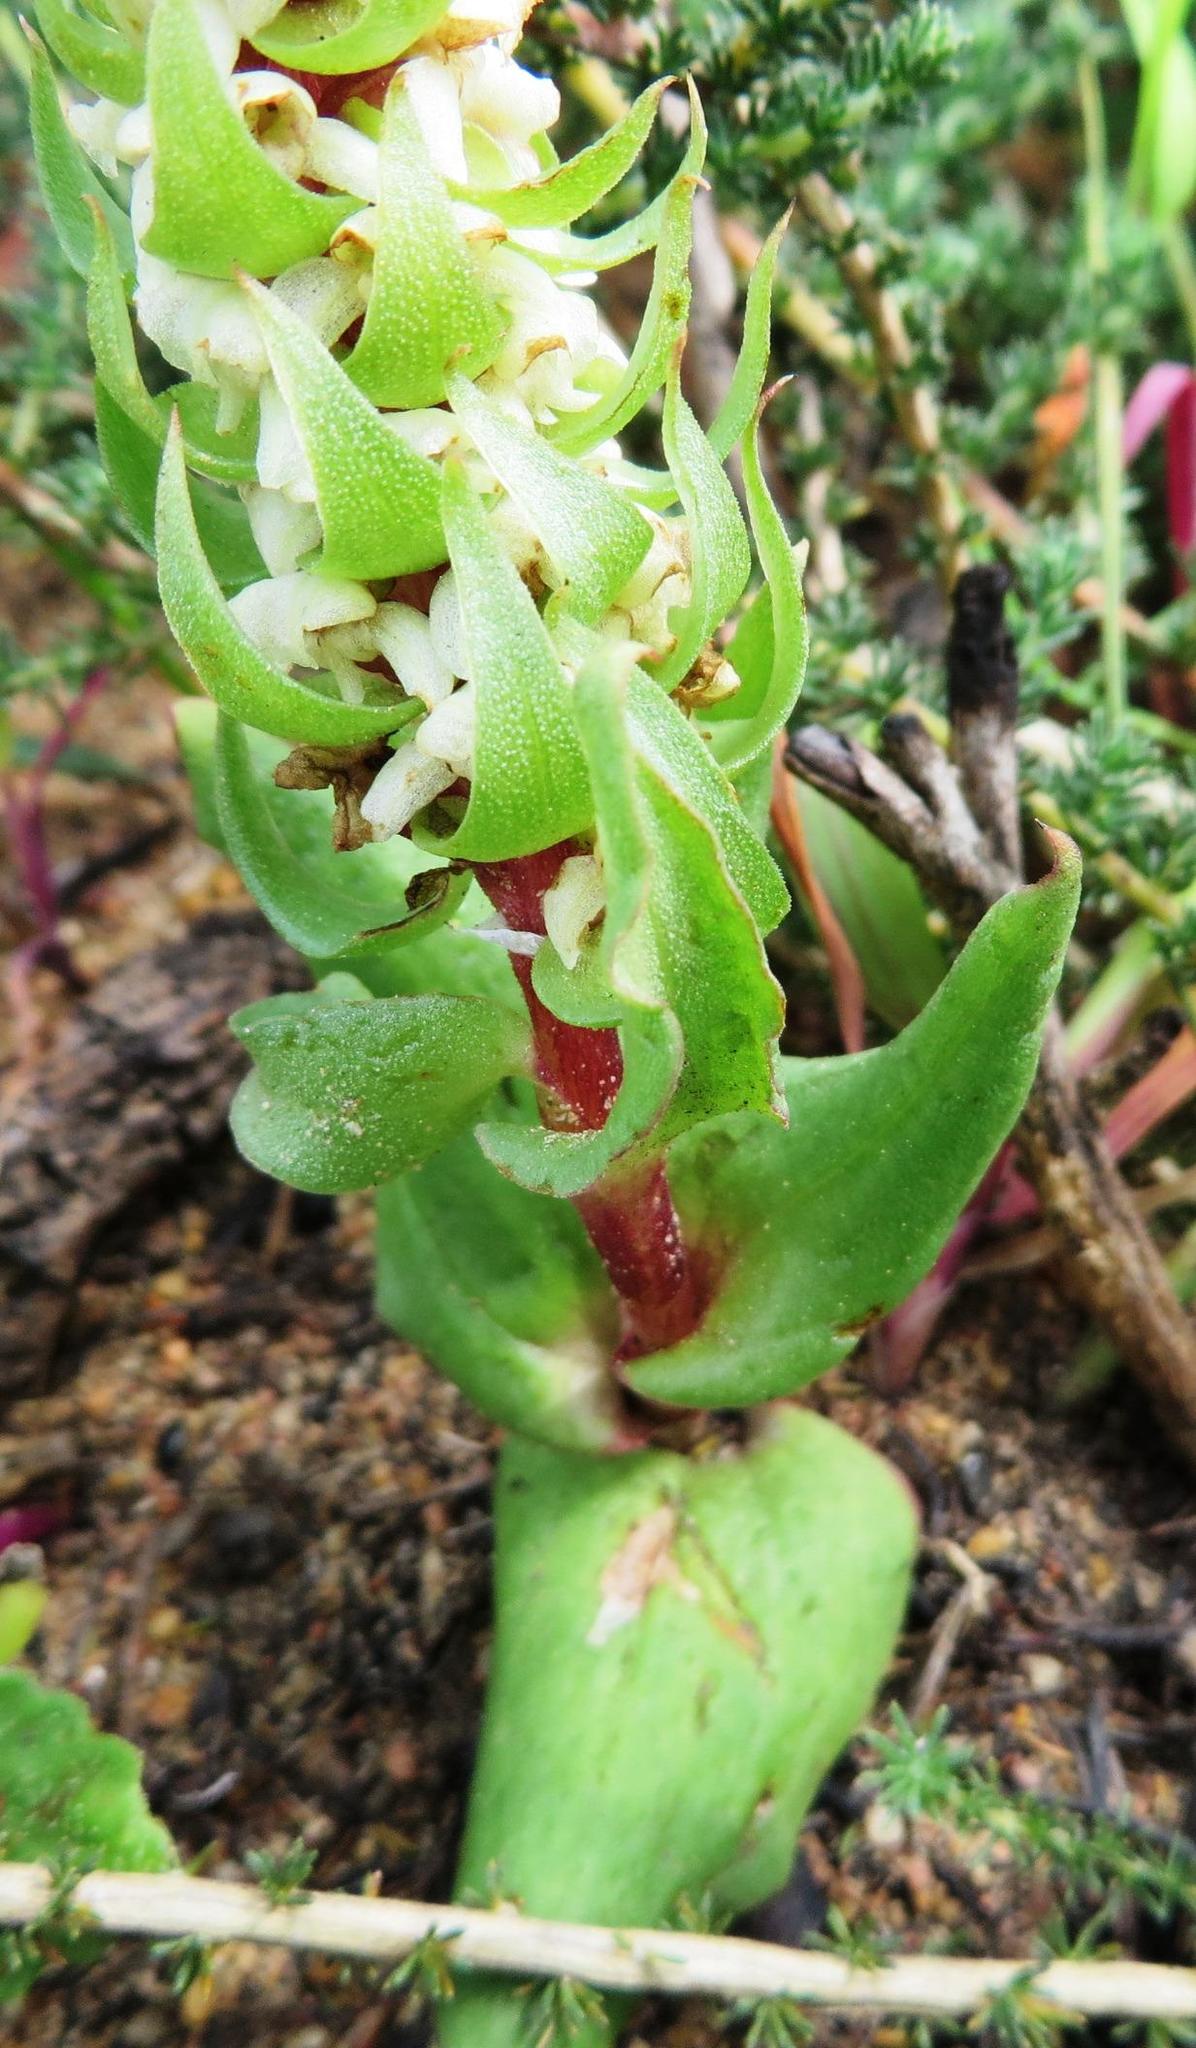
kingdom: Plantae
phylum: Tracheophyta
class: Liliopsida
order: Asparagales
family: Orchidaceae
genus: Satyrium
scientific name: Satyrium bicallosum
